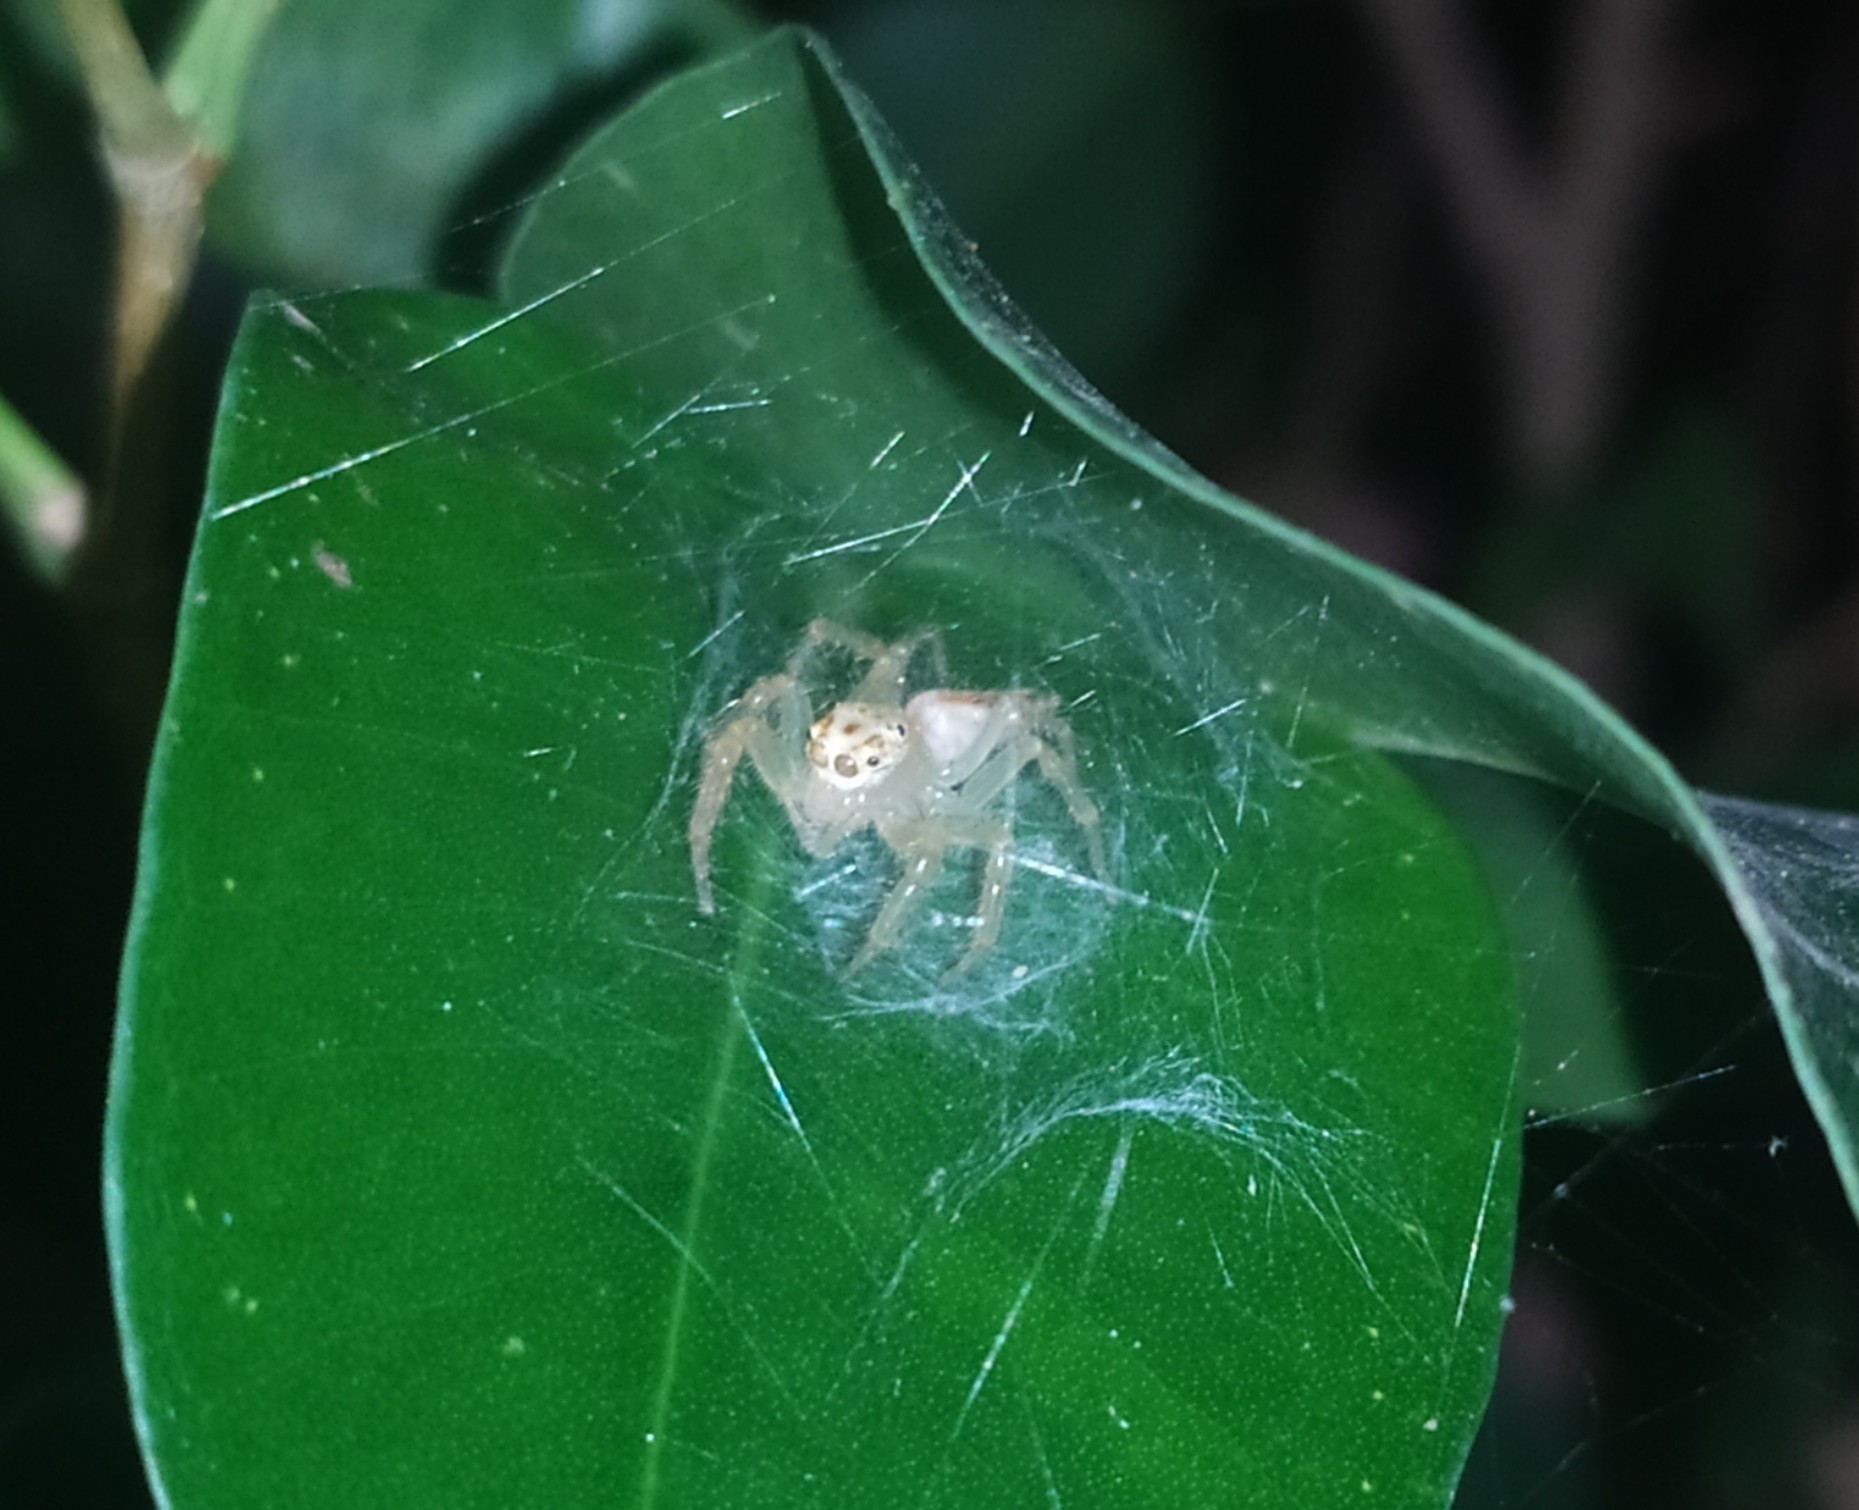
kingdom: Animalia
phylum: Arthropoda
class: Arachnida
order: Araneae
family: Salticidae
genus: Telamonia
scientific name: Telamonia dimidiata
